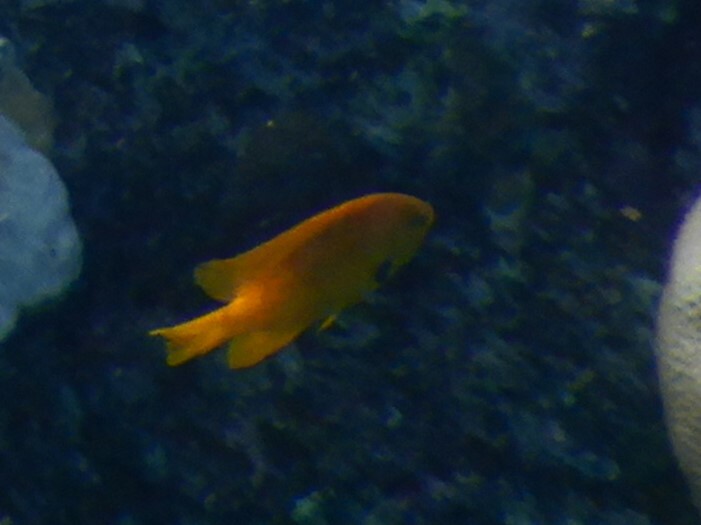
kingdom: Animalia
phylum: Chordata
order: Perciformes
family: Pomacentridae
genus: Pomacentrus
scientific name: Pomacentrus sulfureus
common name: Sulfur damsel
